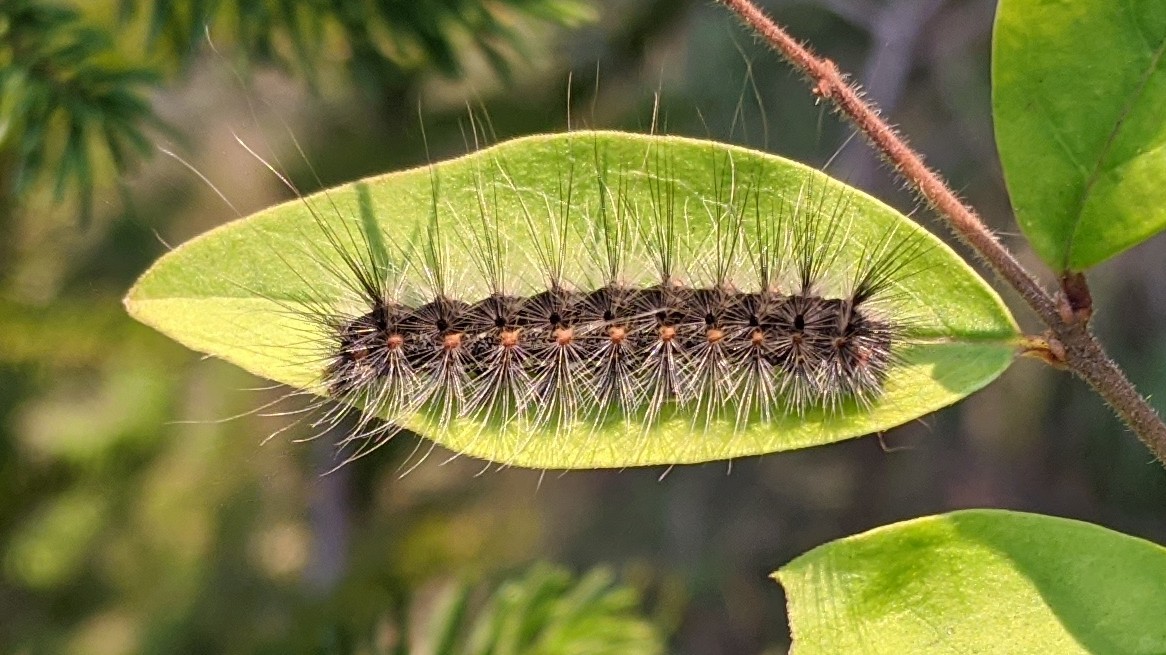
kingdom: Animalia
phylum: Arthropoda
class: Insecta
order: Lepidoptera
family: Erebidae
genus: Hyphantria
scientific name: Hyphantria cunea
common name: American white moth
